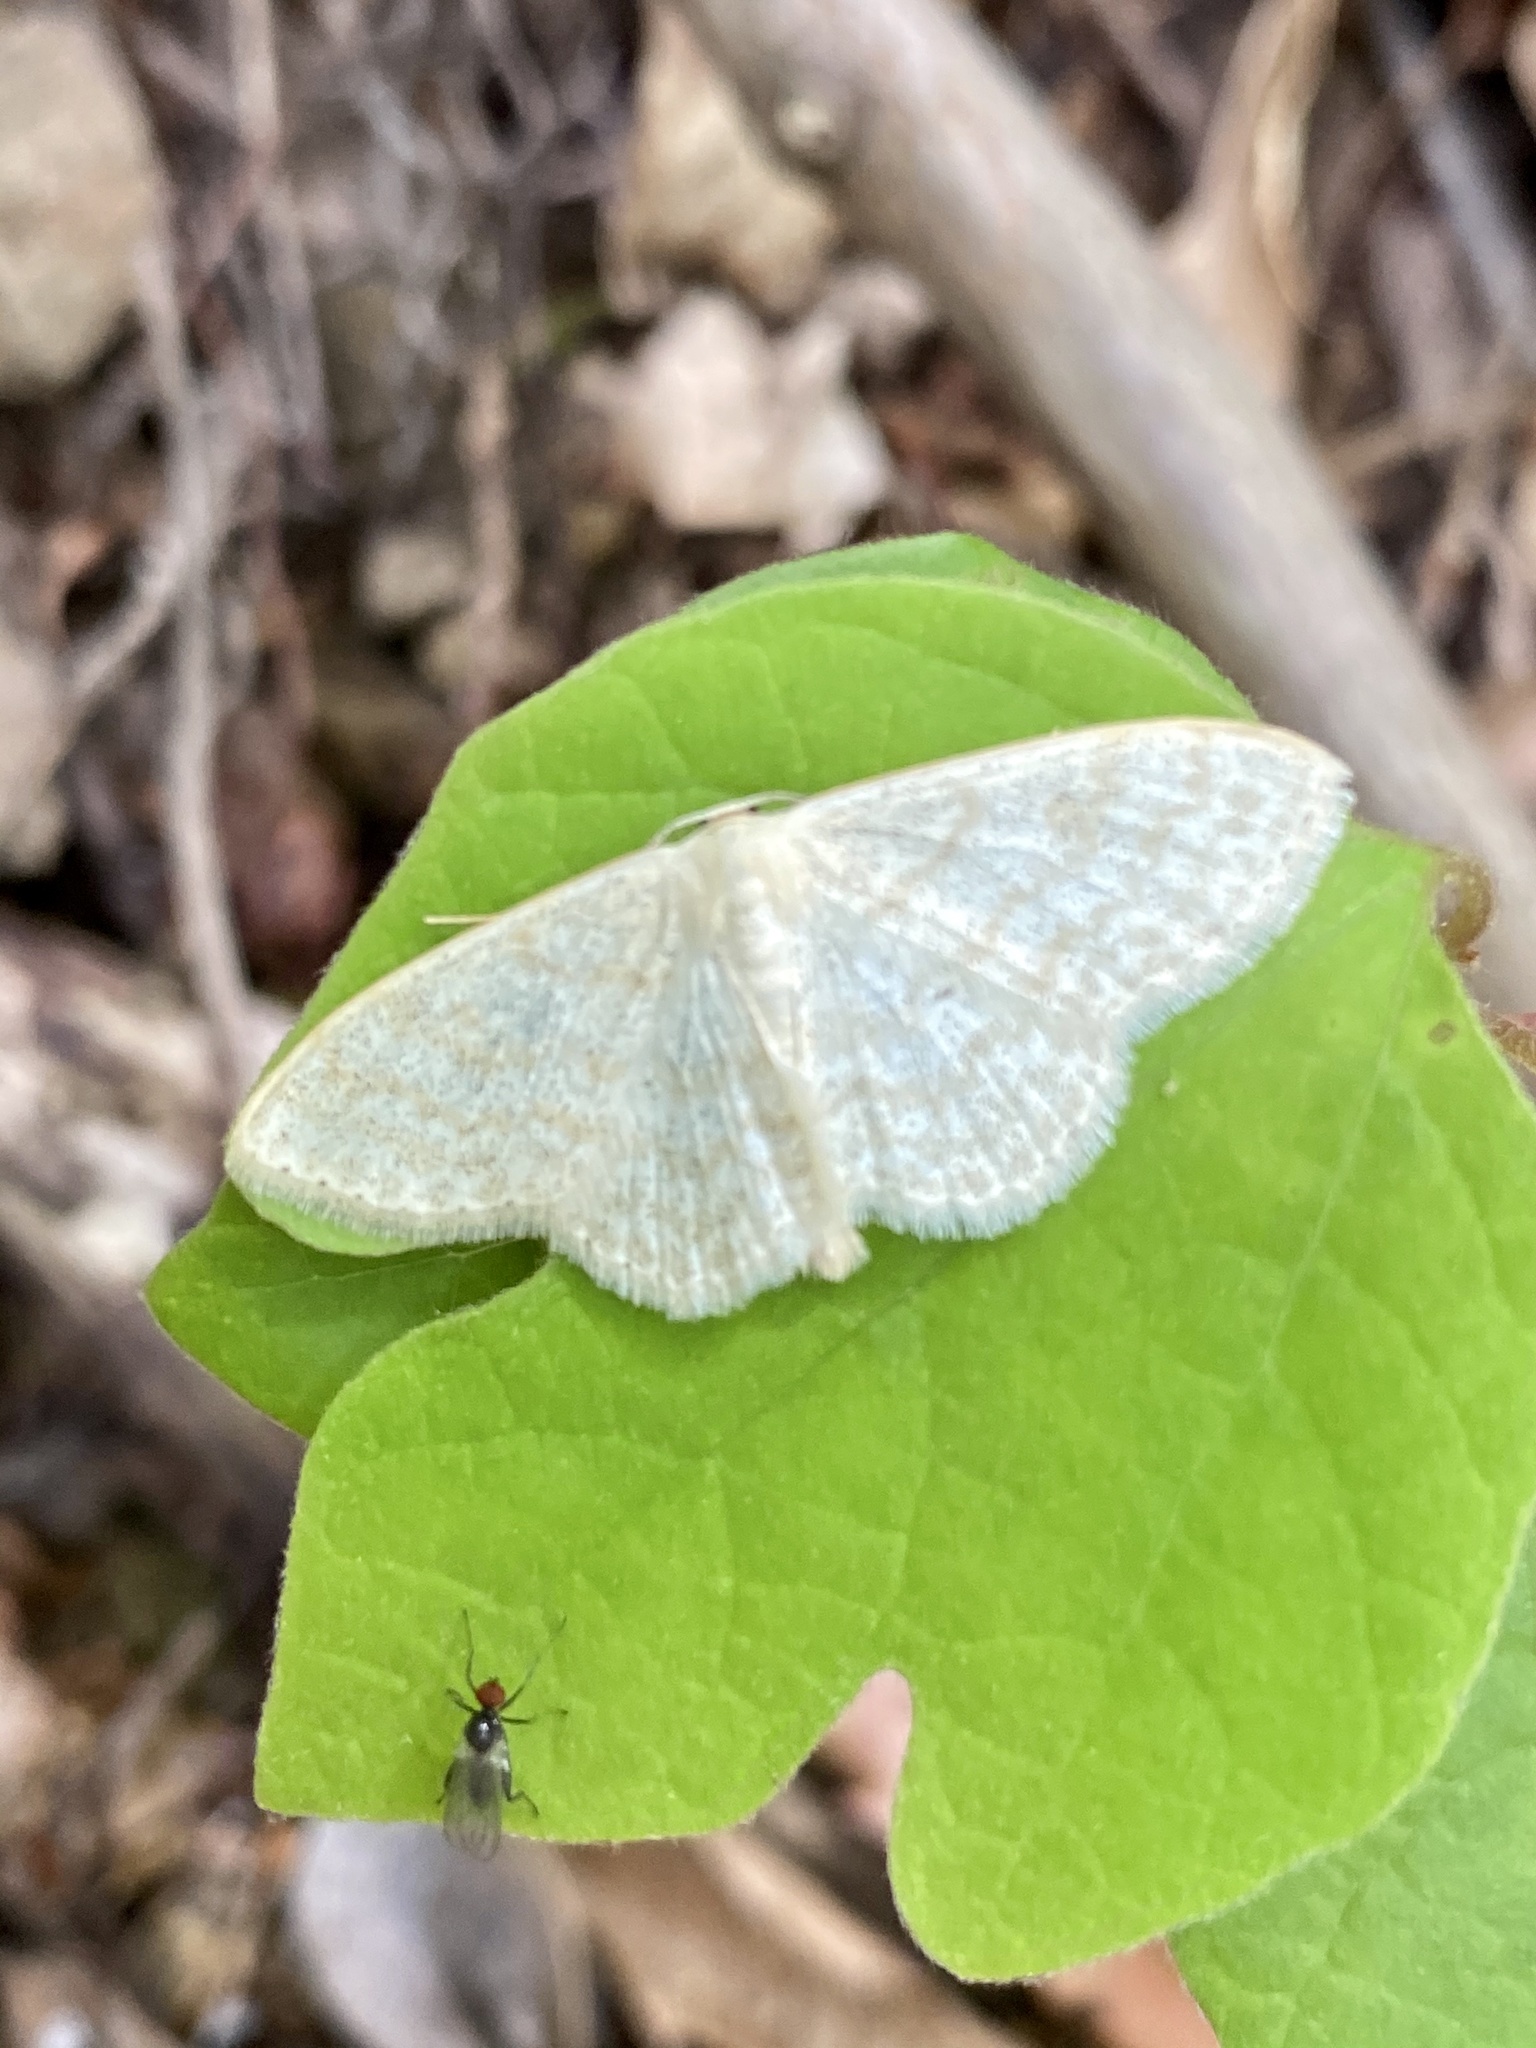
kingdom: Animalia
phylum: Arthropoda
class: Insecta
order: Lepidoptera
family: Geometridae
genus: Scopula
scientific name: Scopula floslactata
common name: Cream wave
